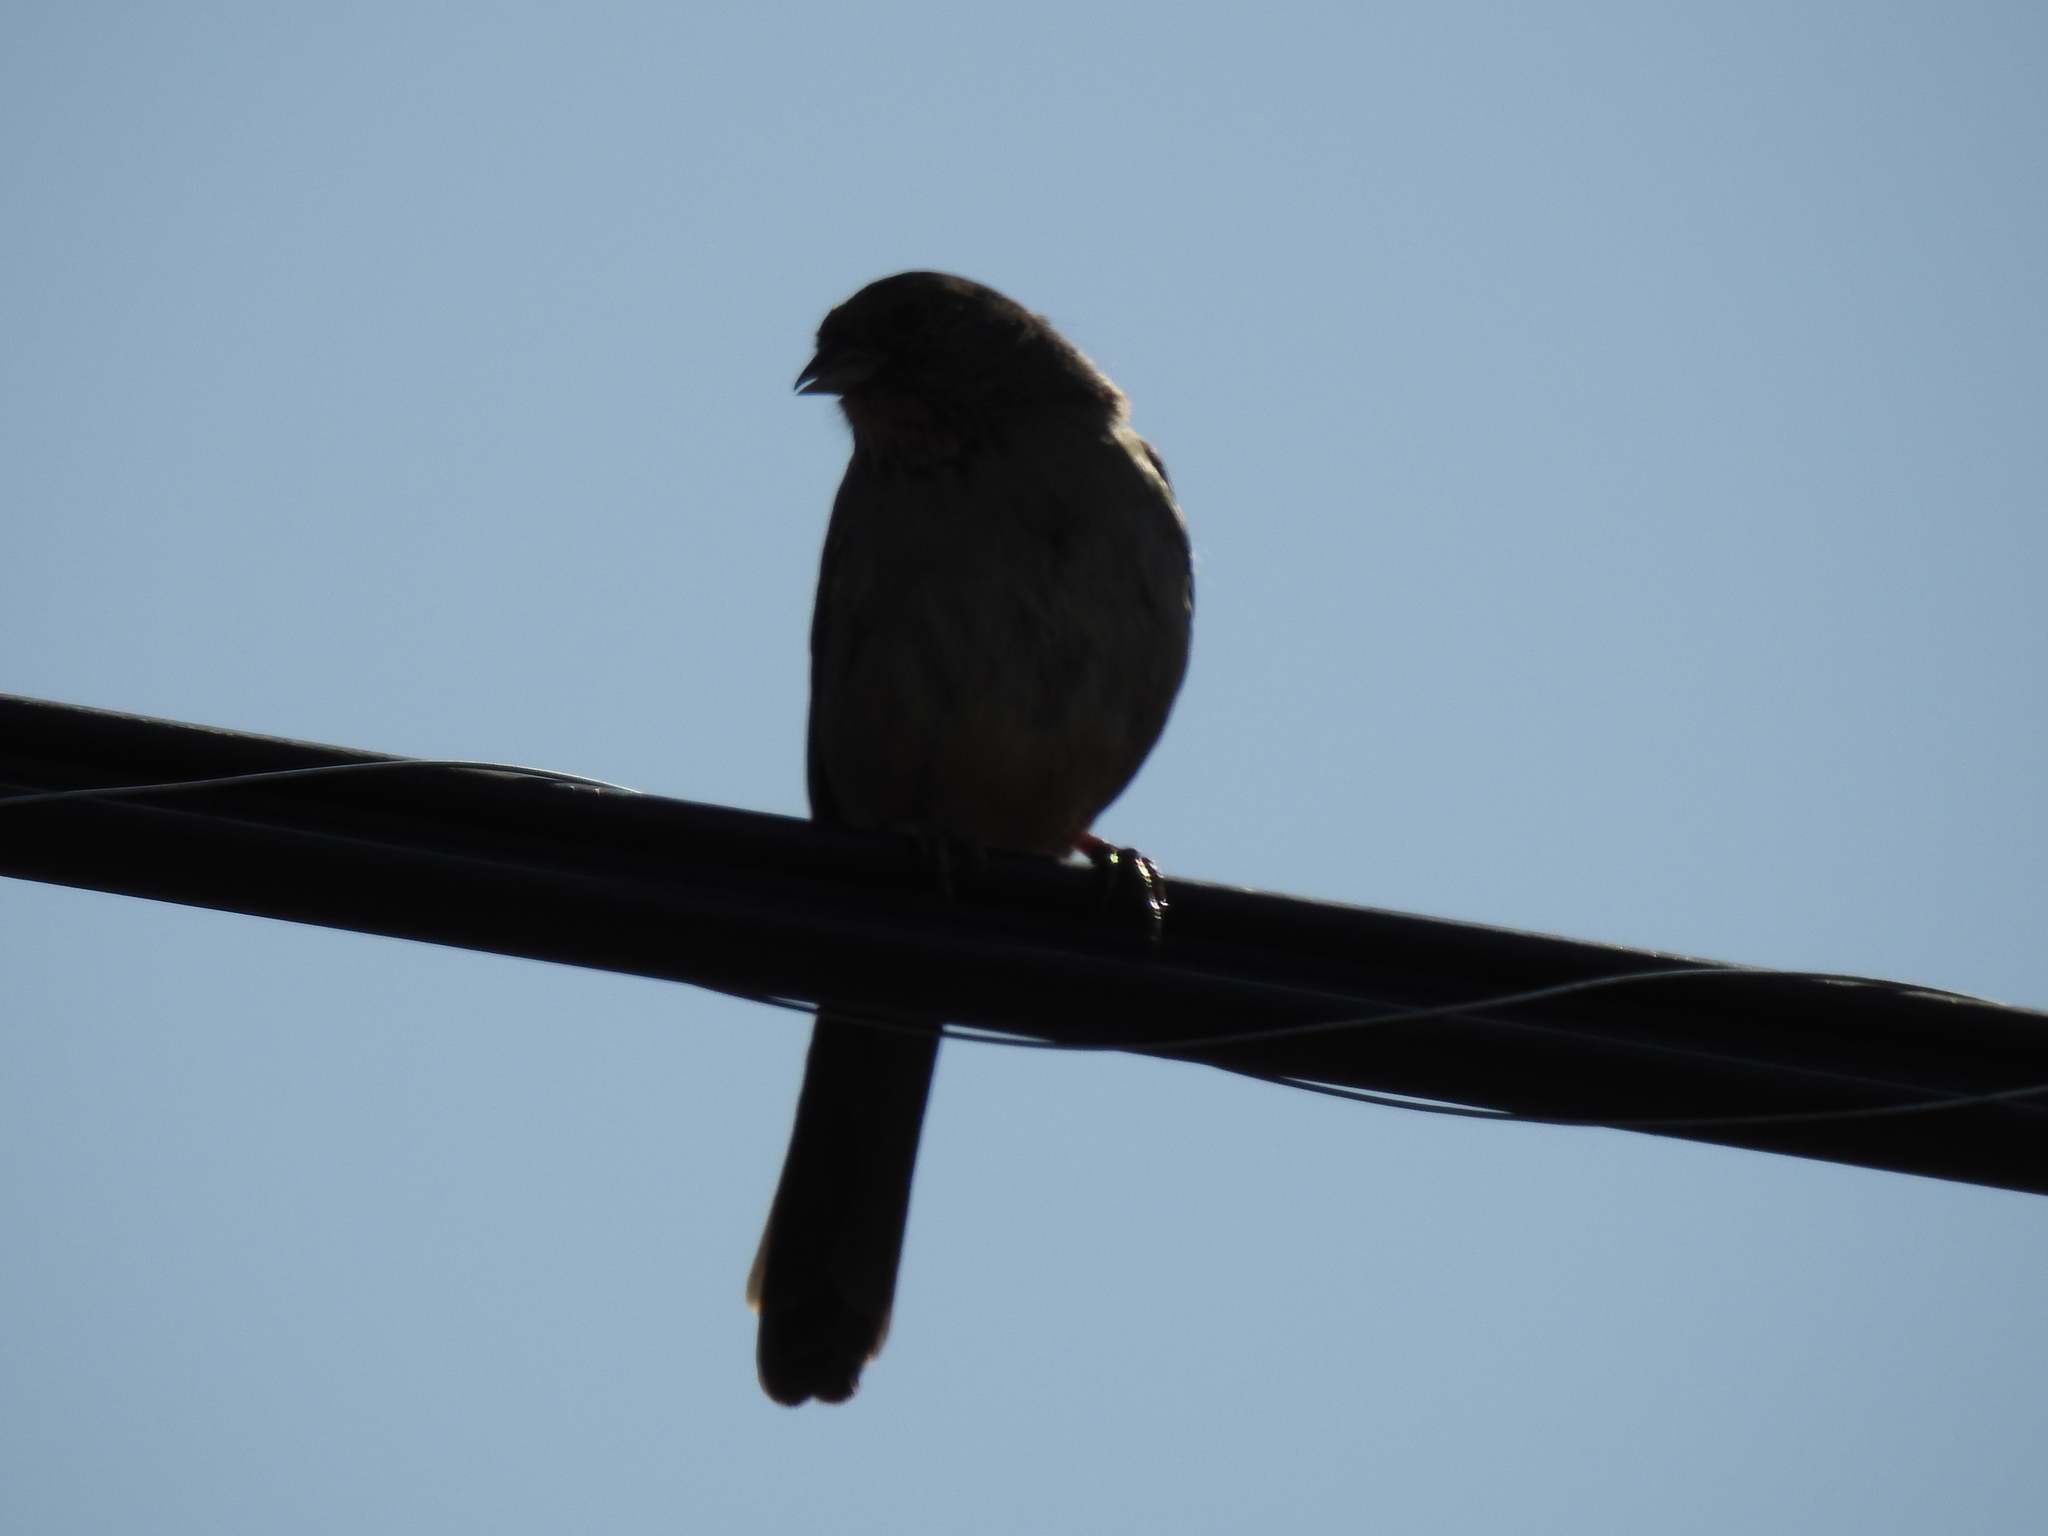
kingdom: Animalia
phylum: Chordata
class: Aves
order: Passeriformes
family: Passerellidae
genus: Melozone
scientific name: Melozone crissalis
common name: California towhee
